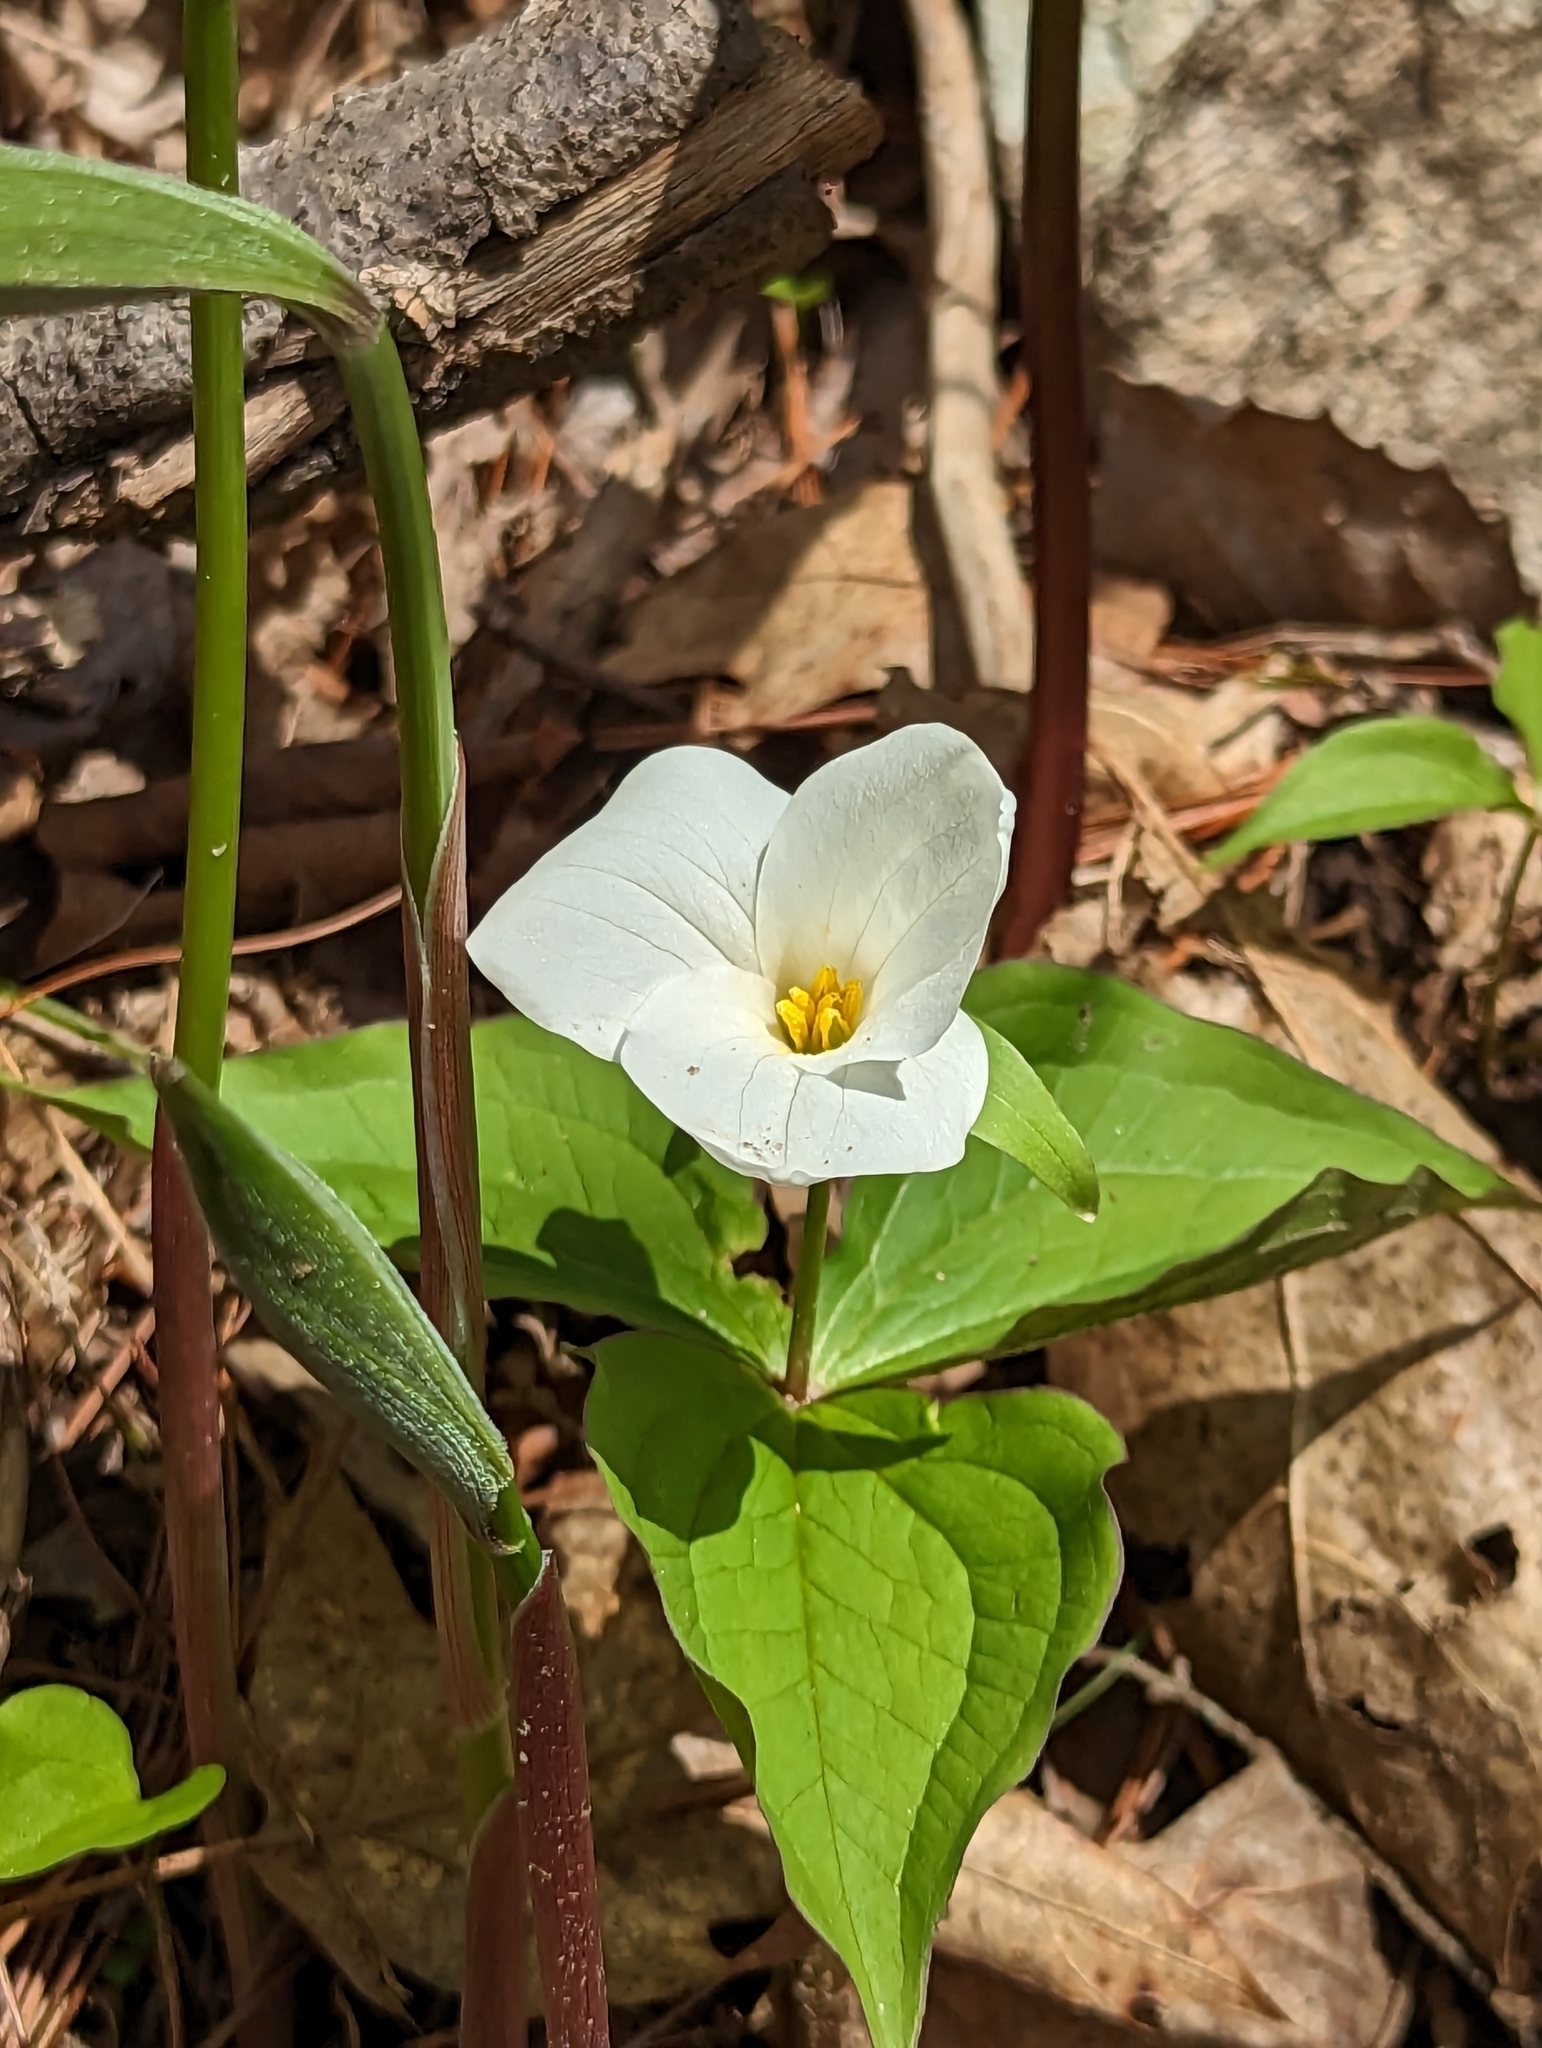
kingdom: Plantae
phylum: Tracheophyta
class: Liliopsida
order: Liliales
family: Melanthiaceae
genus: Trillium
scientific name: Trillium grandiflorum
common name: Great white trillium
